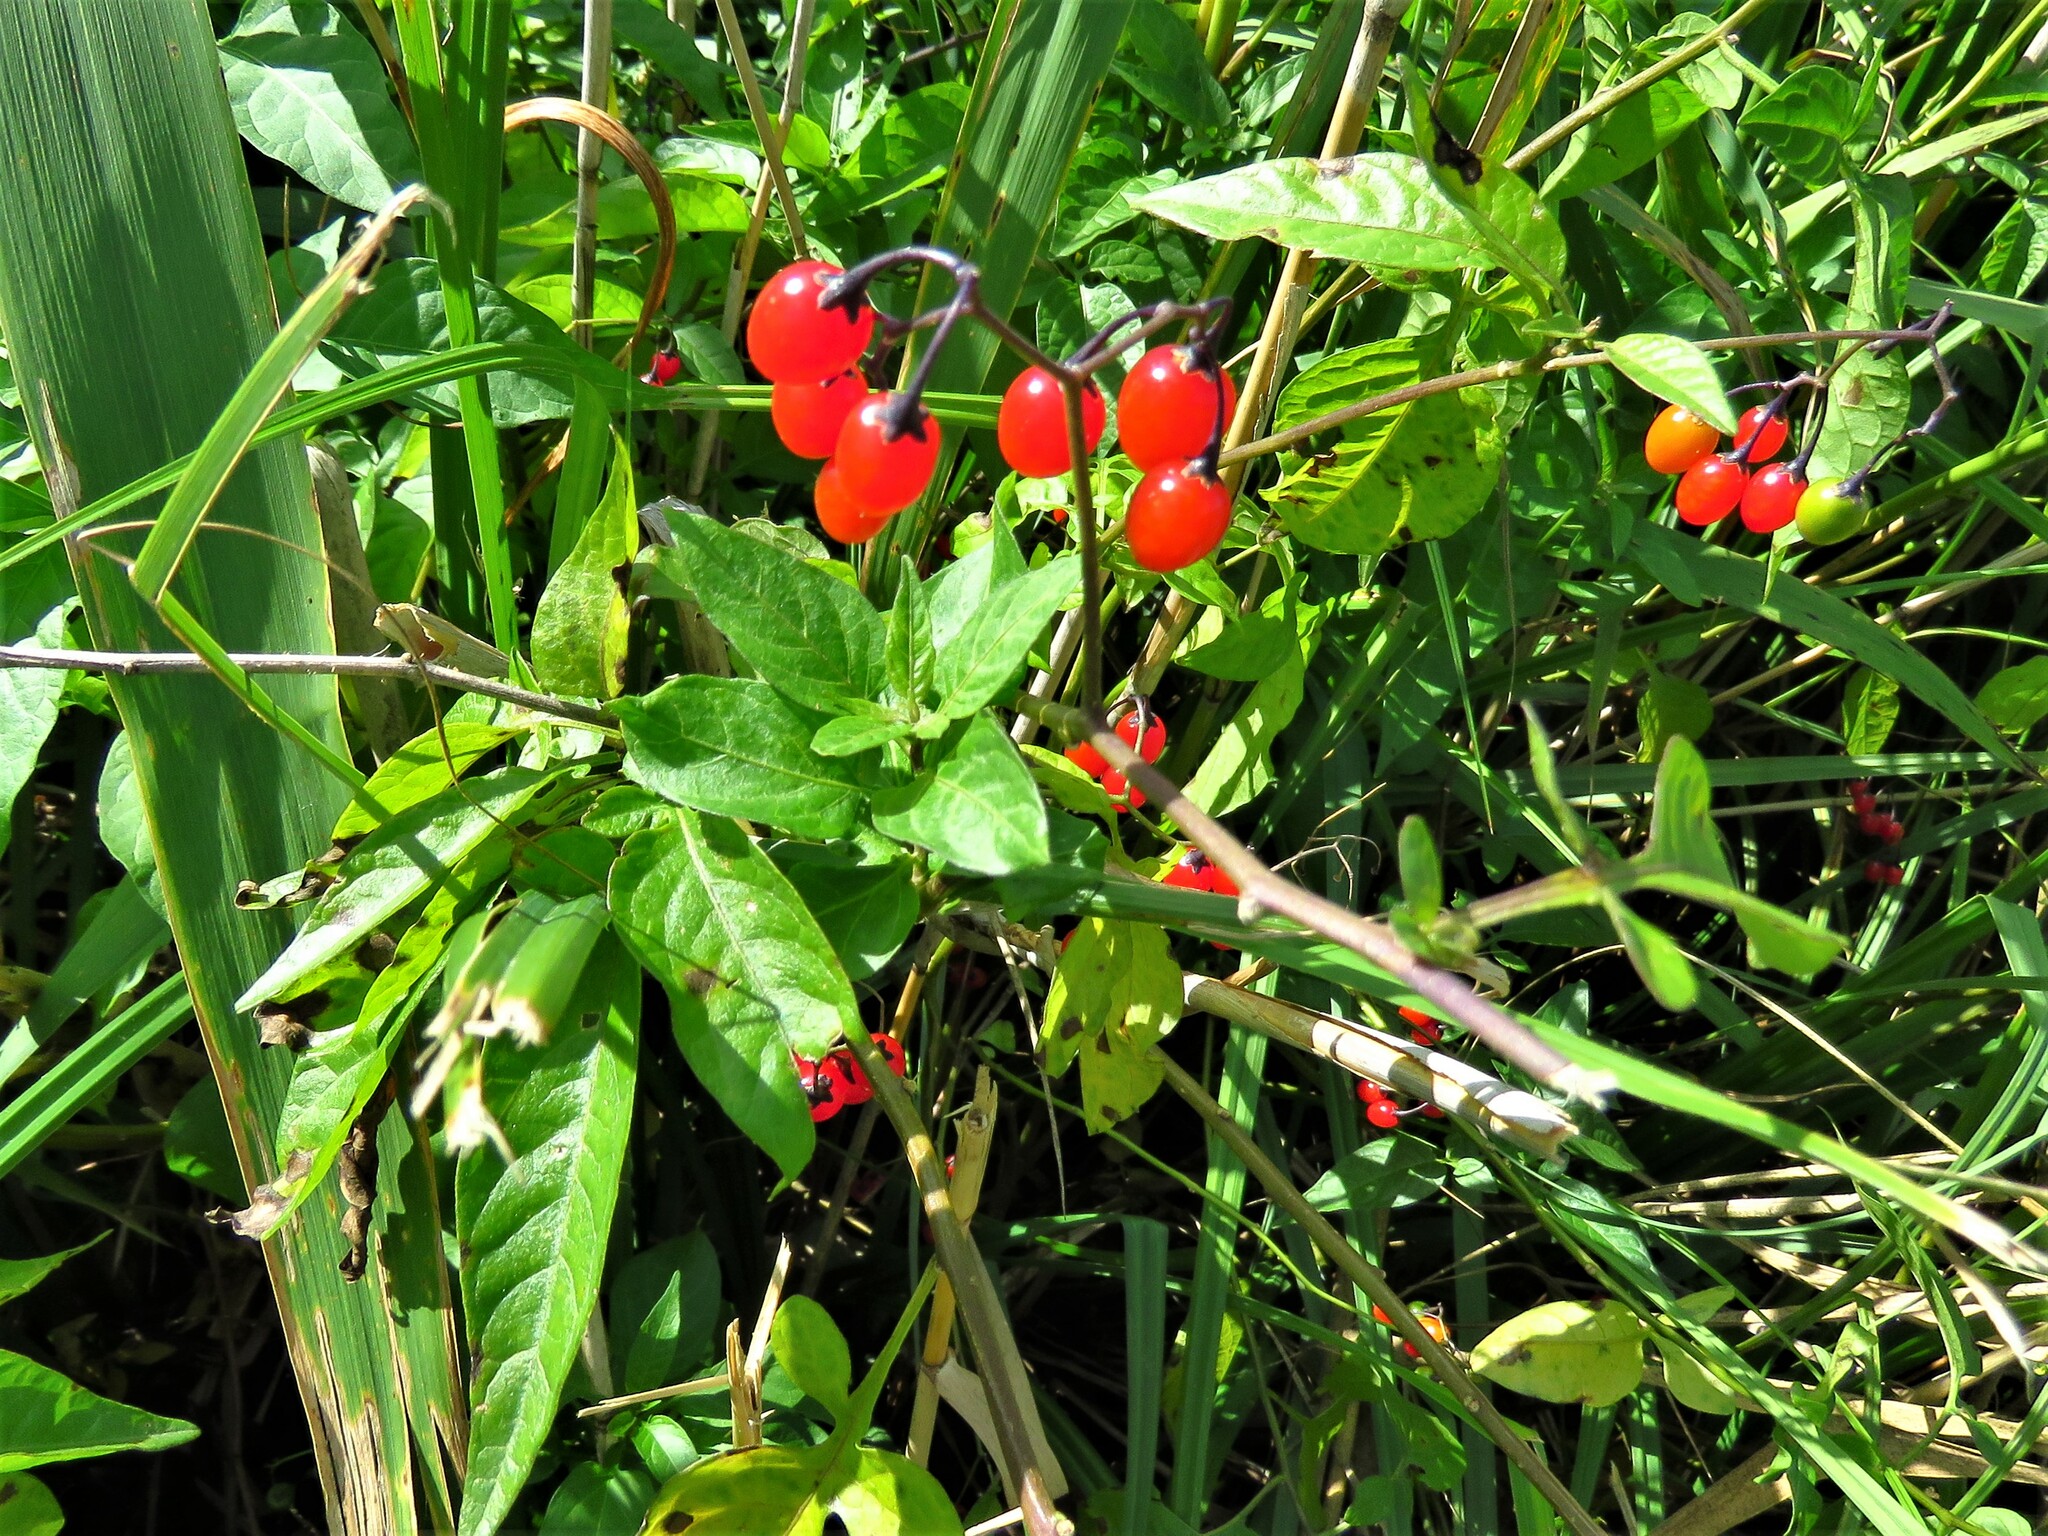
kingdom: Plantae
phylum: Tracheophyta
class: Magnoliopsida
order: Solanales
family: Solanaceae
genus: Solanum
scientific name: Solanum dulcamara
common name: Climbing nightshade
